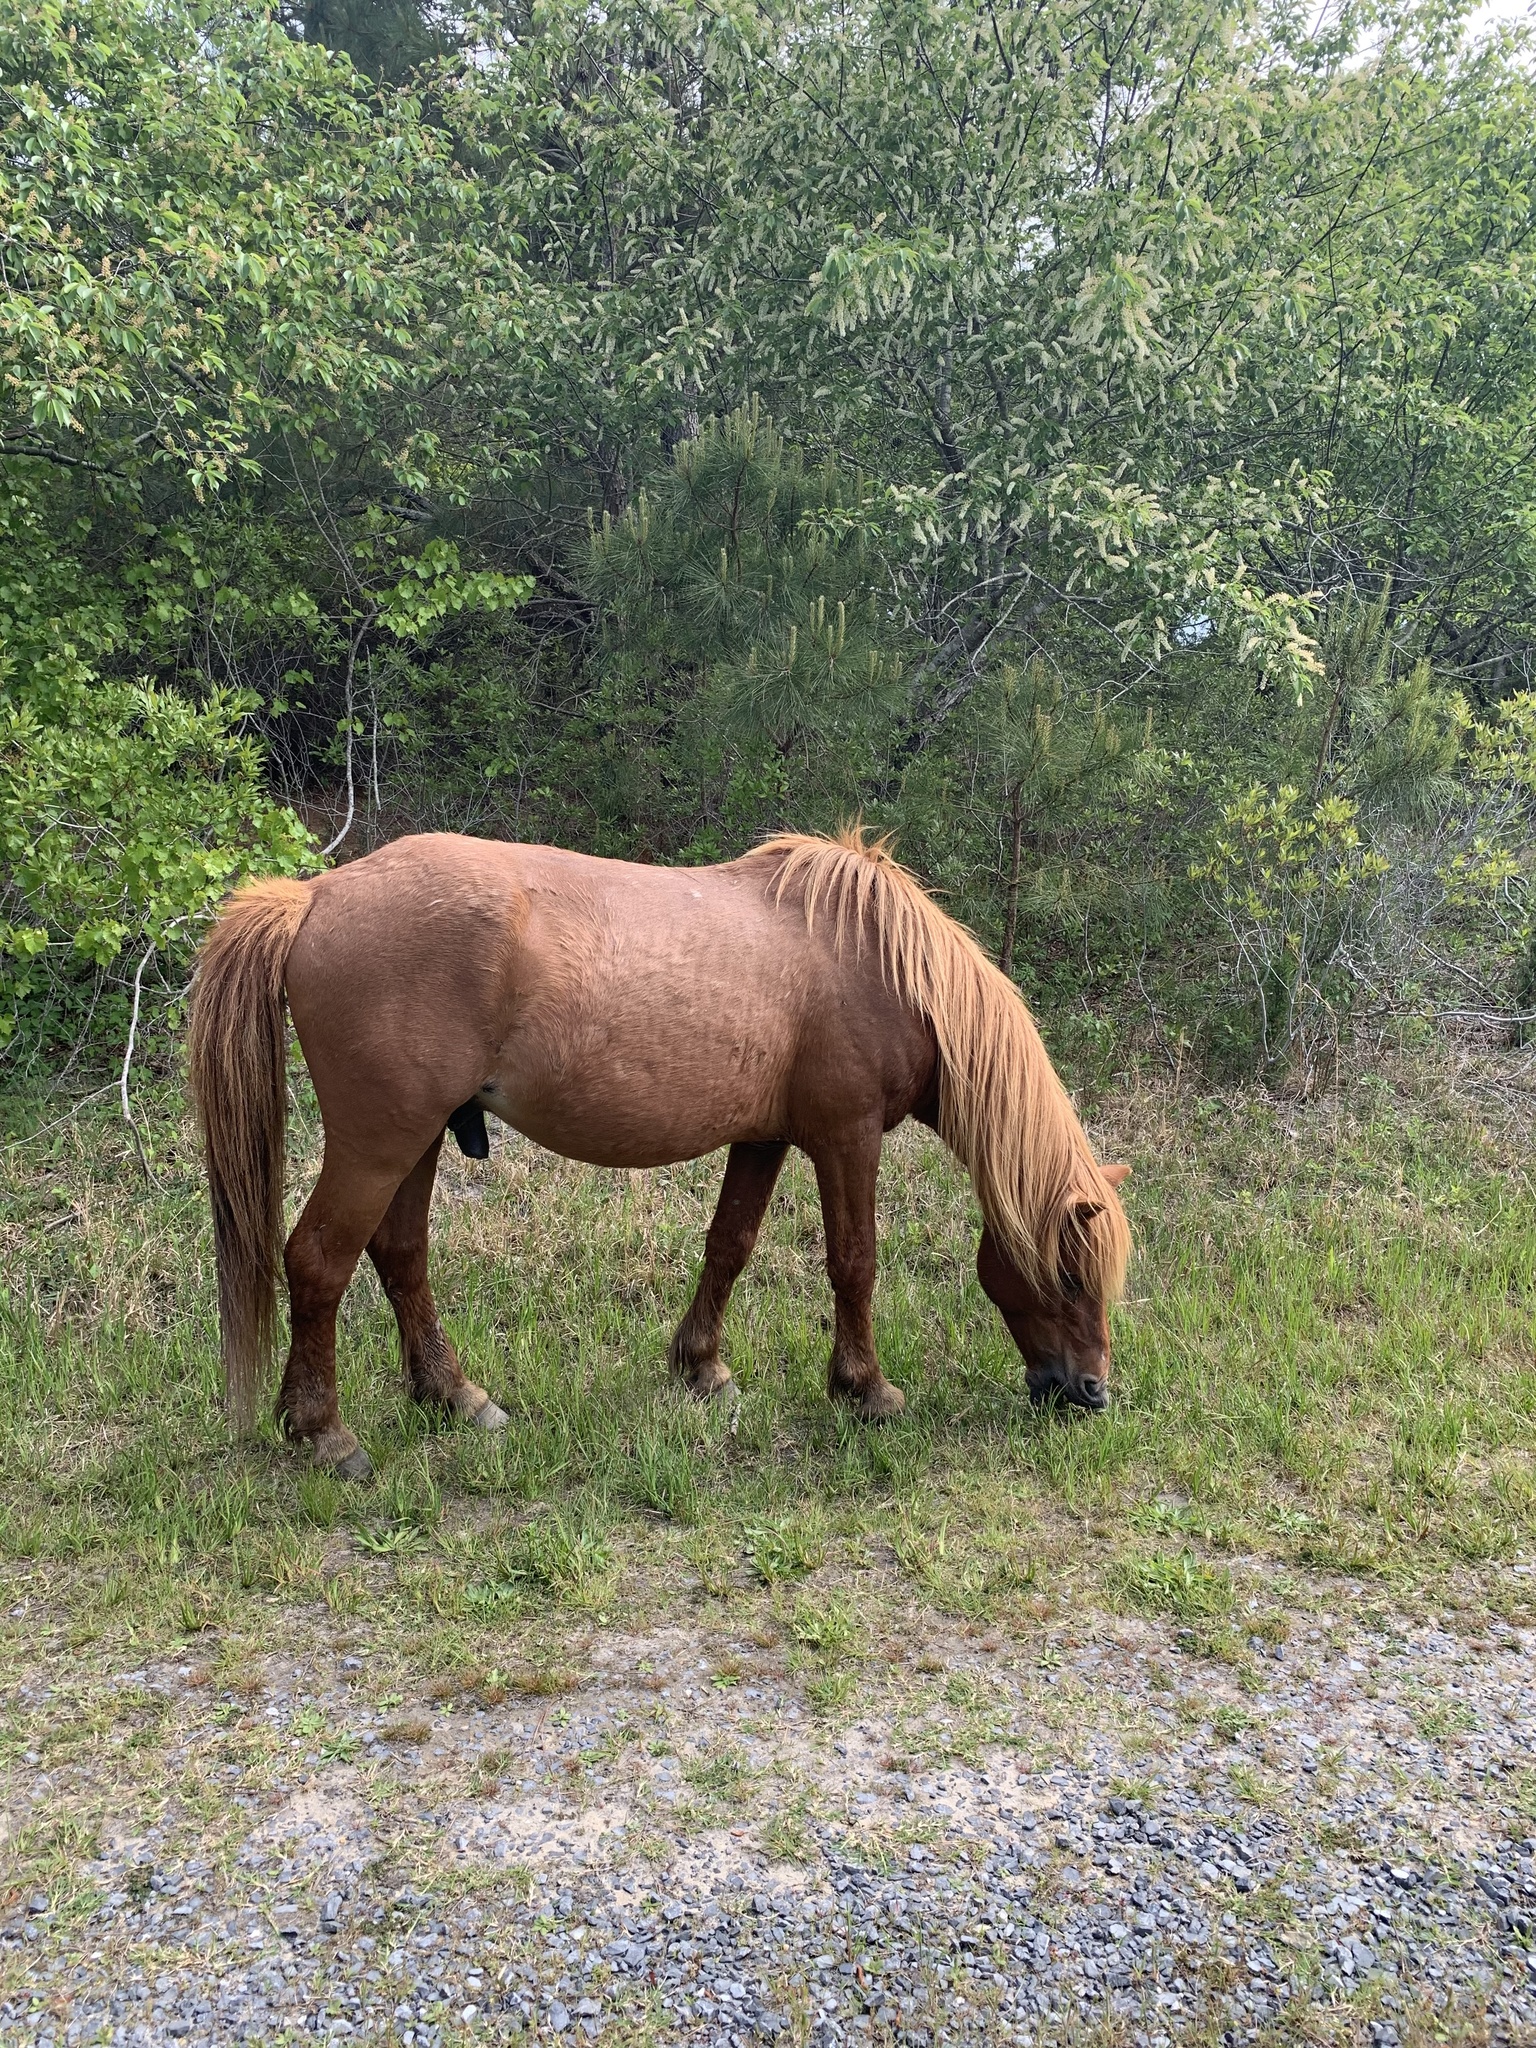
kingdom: Animalia
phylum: Chordata
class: Mammalia
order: Perissodactyla
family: Equidae
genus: Equus
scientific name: Equus caballus
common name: Horse
